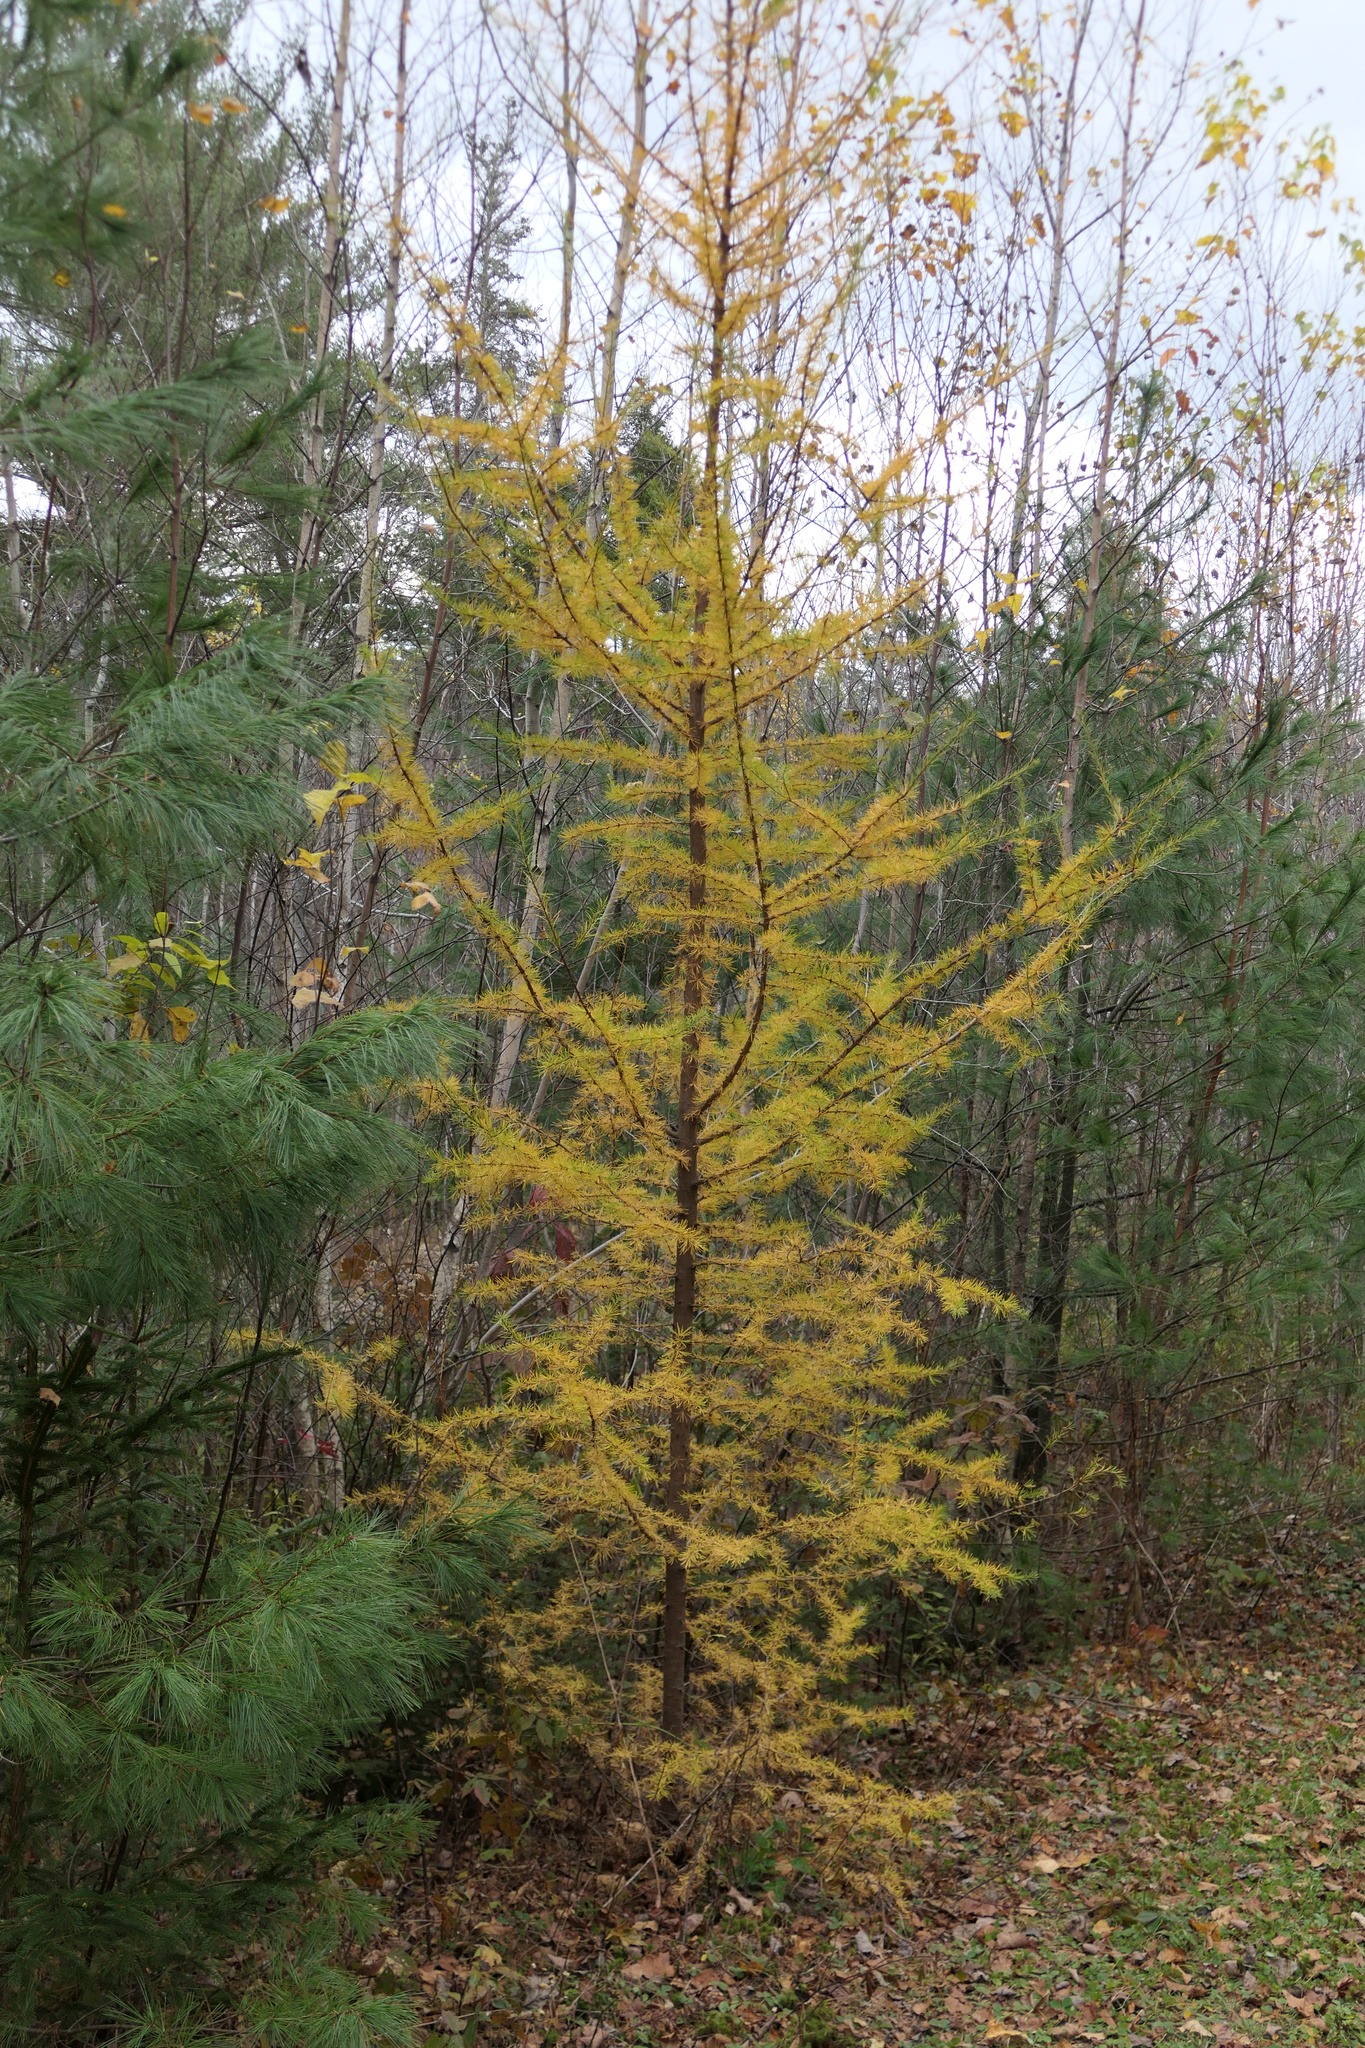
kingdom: Plantae
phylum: Tracheophyta
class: Pinopsida
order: Pinales
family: Pinaceae
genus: Larix
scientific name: Larix laricina
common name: American larch
